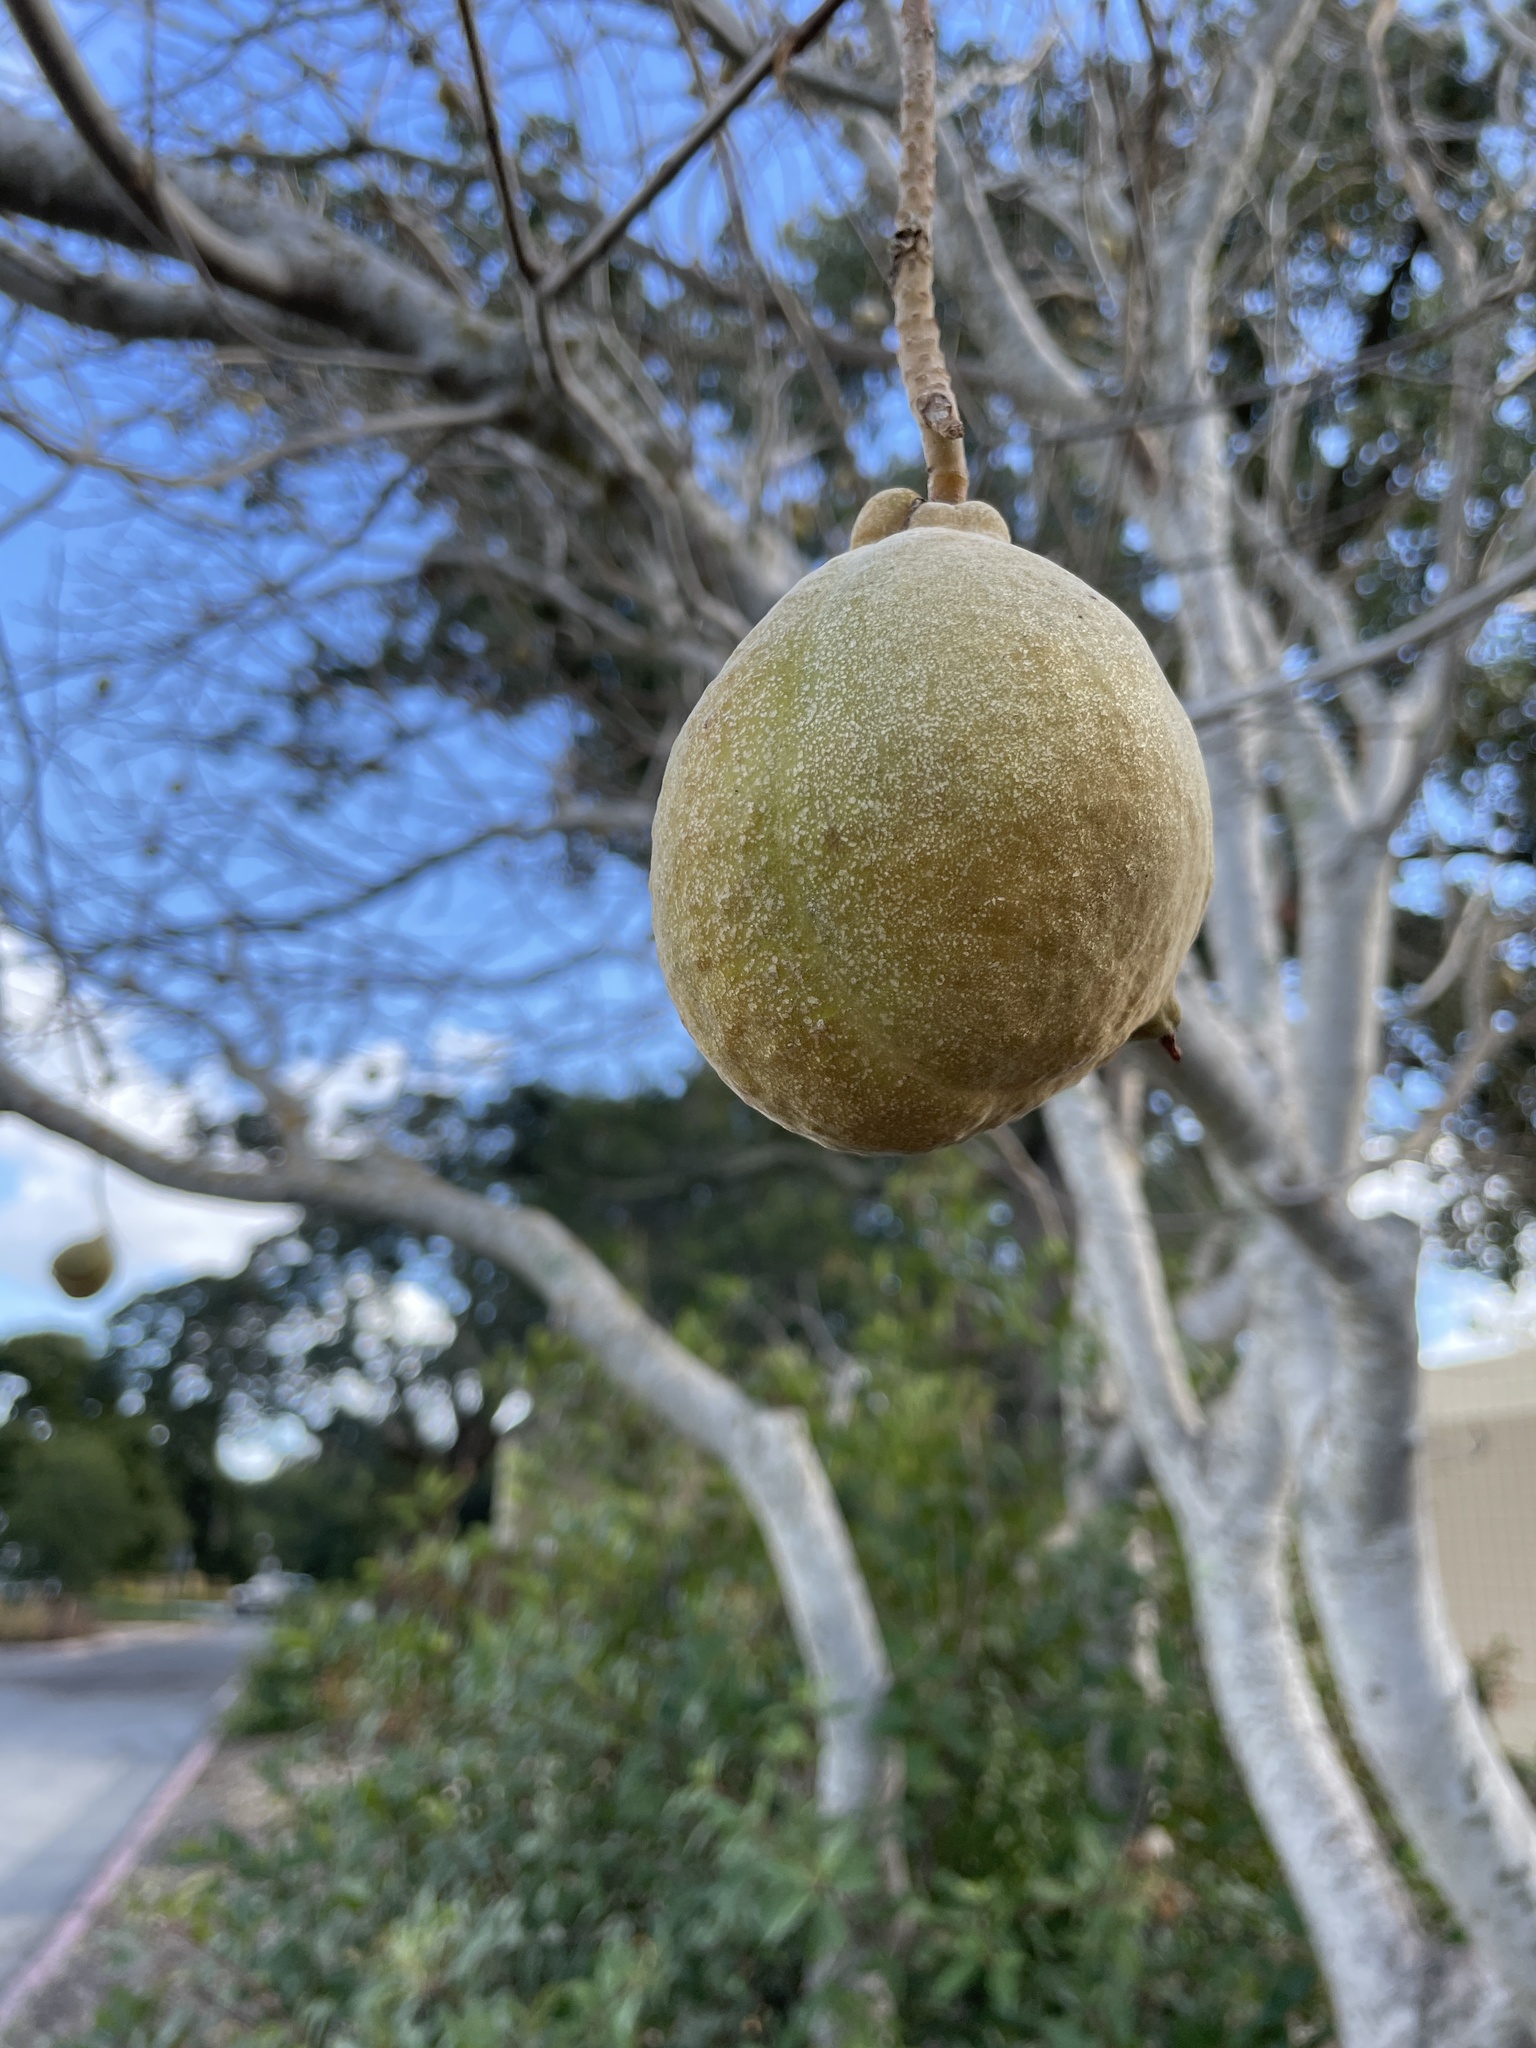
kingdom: Plantae
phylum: Tracheophyta
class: Magnoliopsida
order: Sapindales
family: Sapindaceae
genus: Aesculus
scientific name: Aesculus californica
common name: California buckeye
